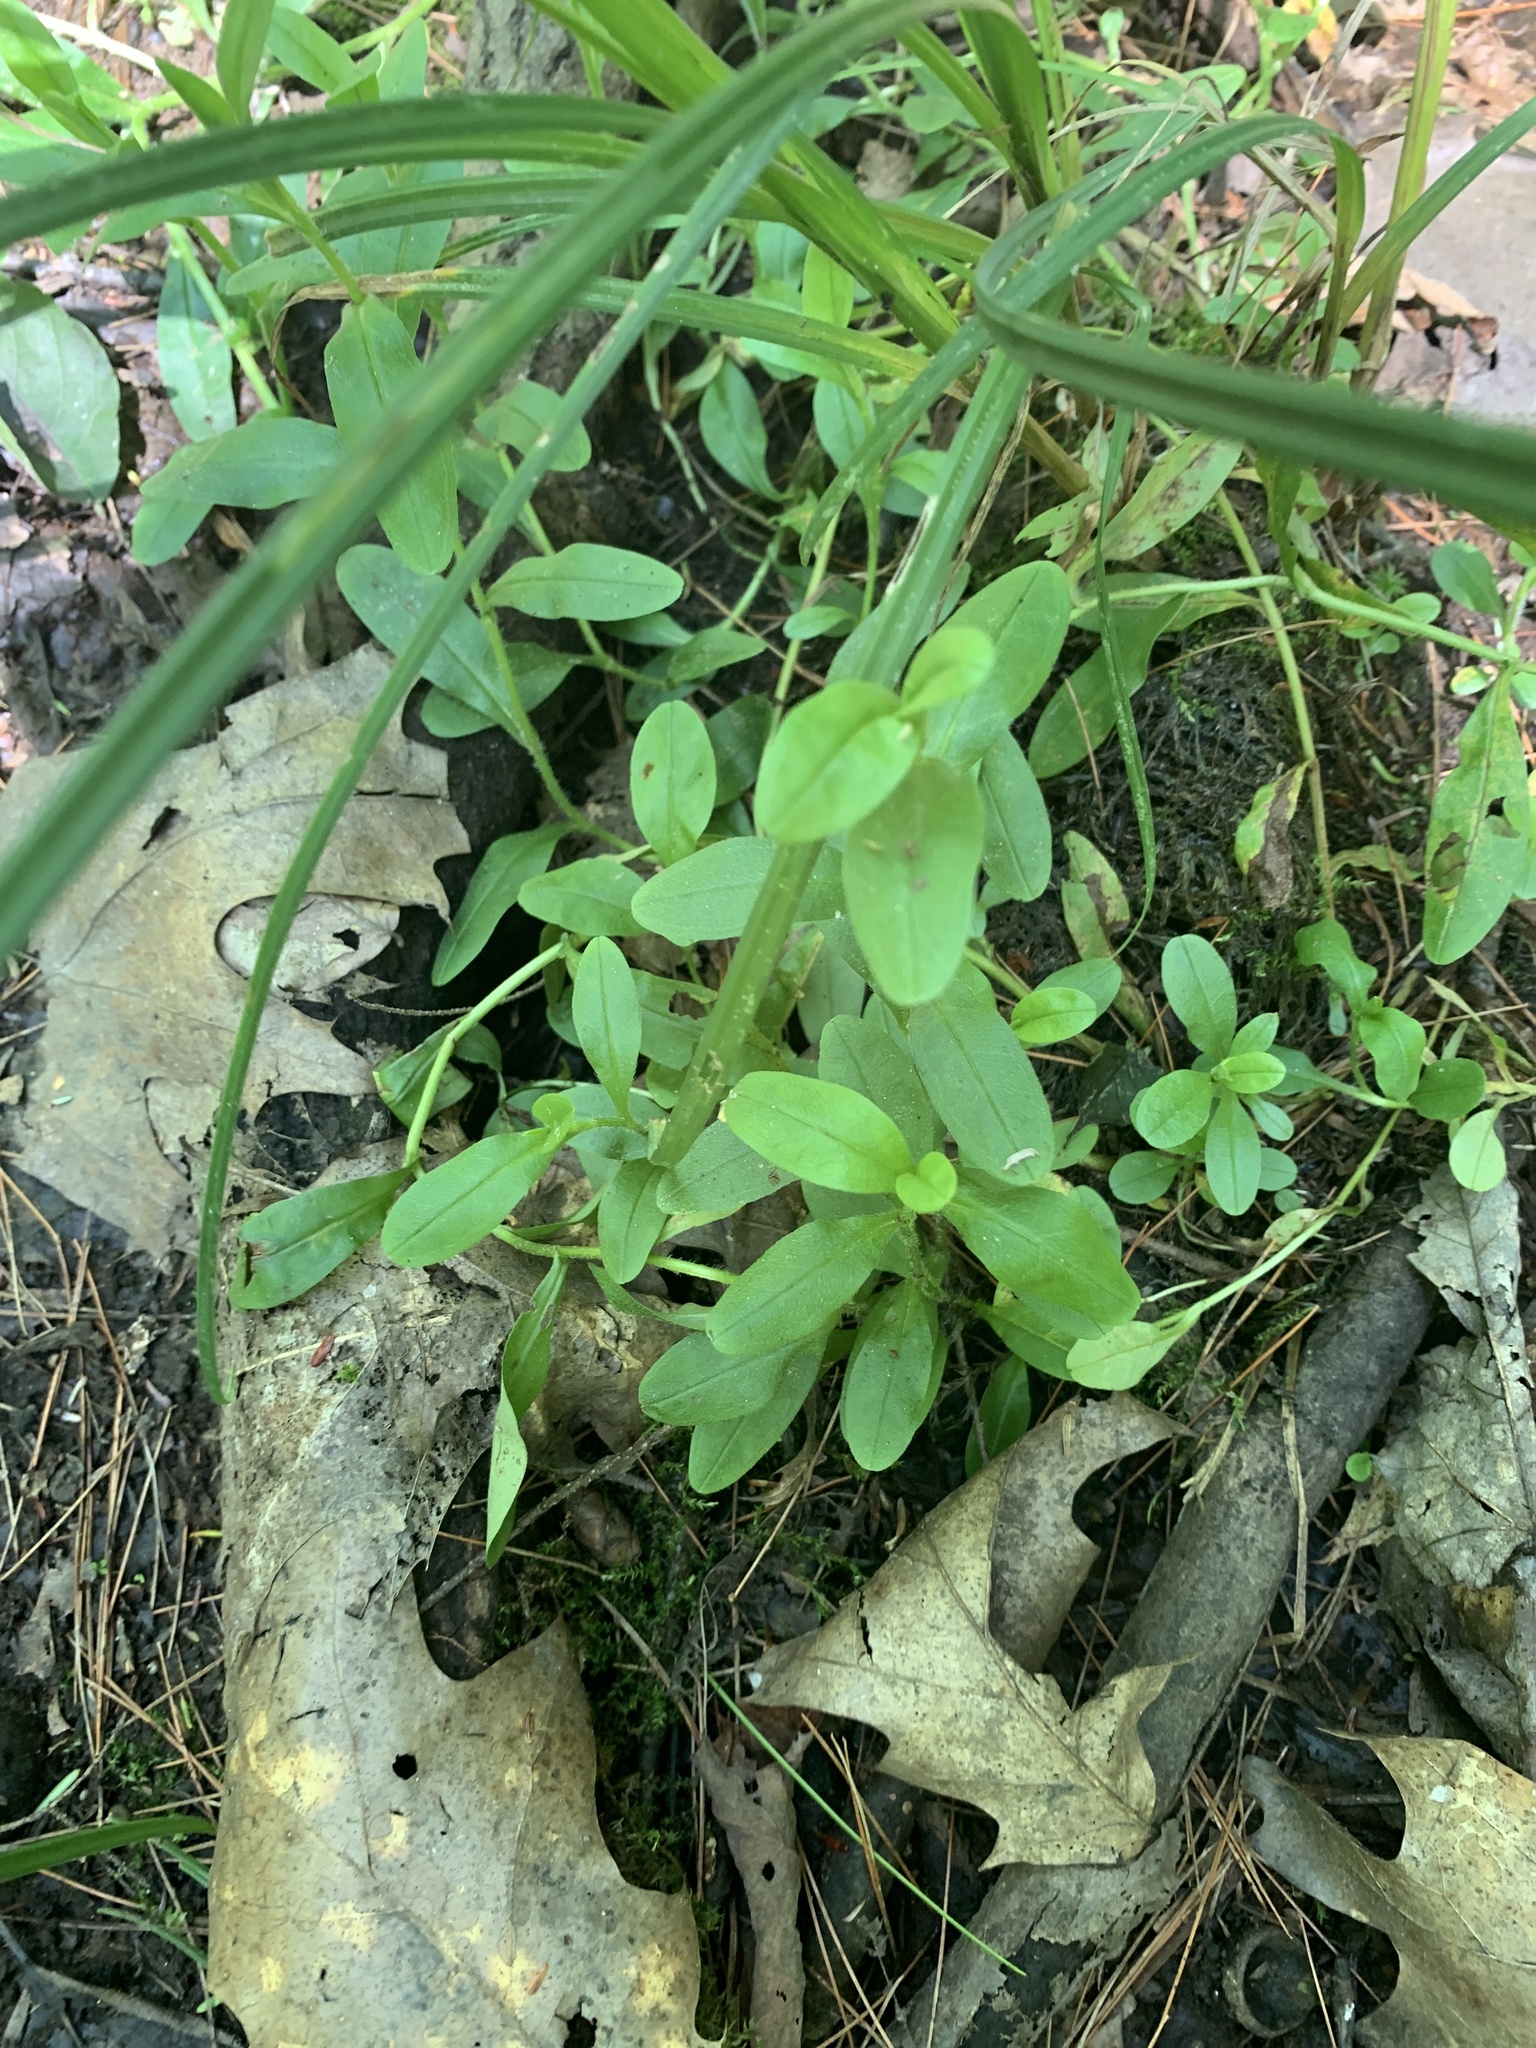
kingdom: Plantae
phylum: Tracheophyta
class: Magnoliopsida
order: Boraginales
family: Boraginaceae
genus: Myosotis
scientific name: Myosotis scorpioides
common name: Water forget-me-not
